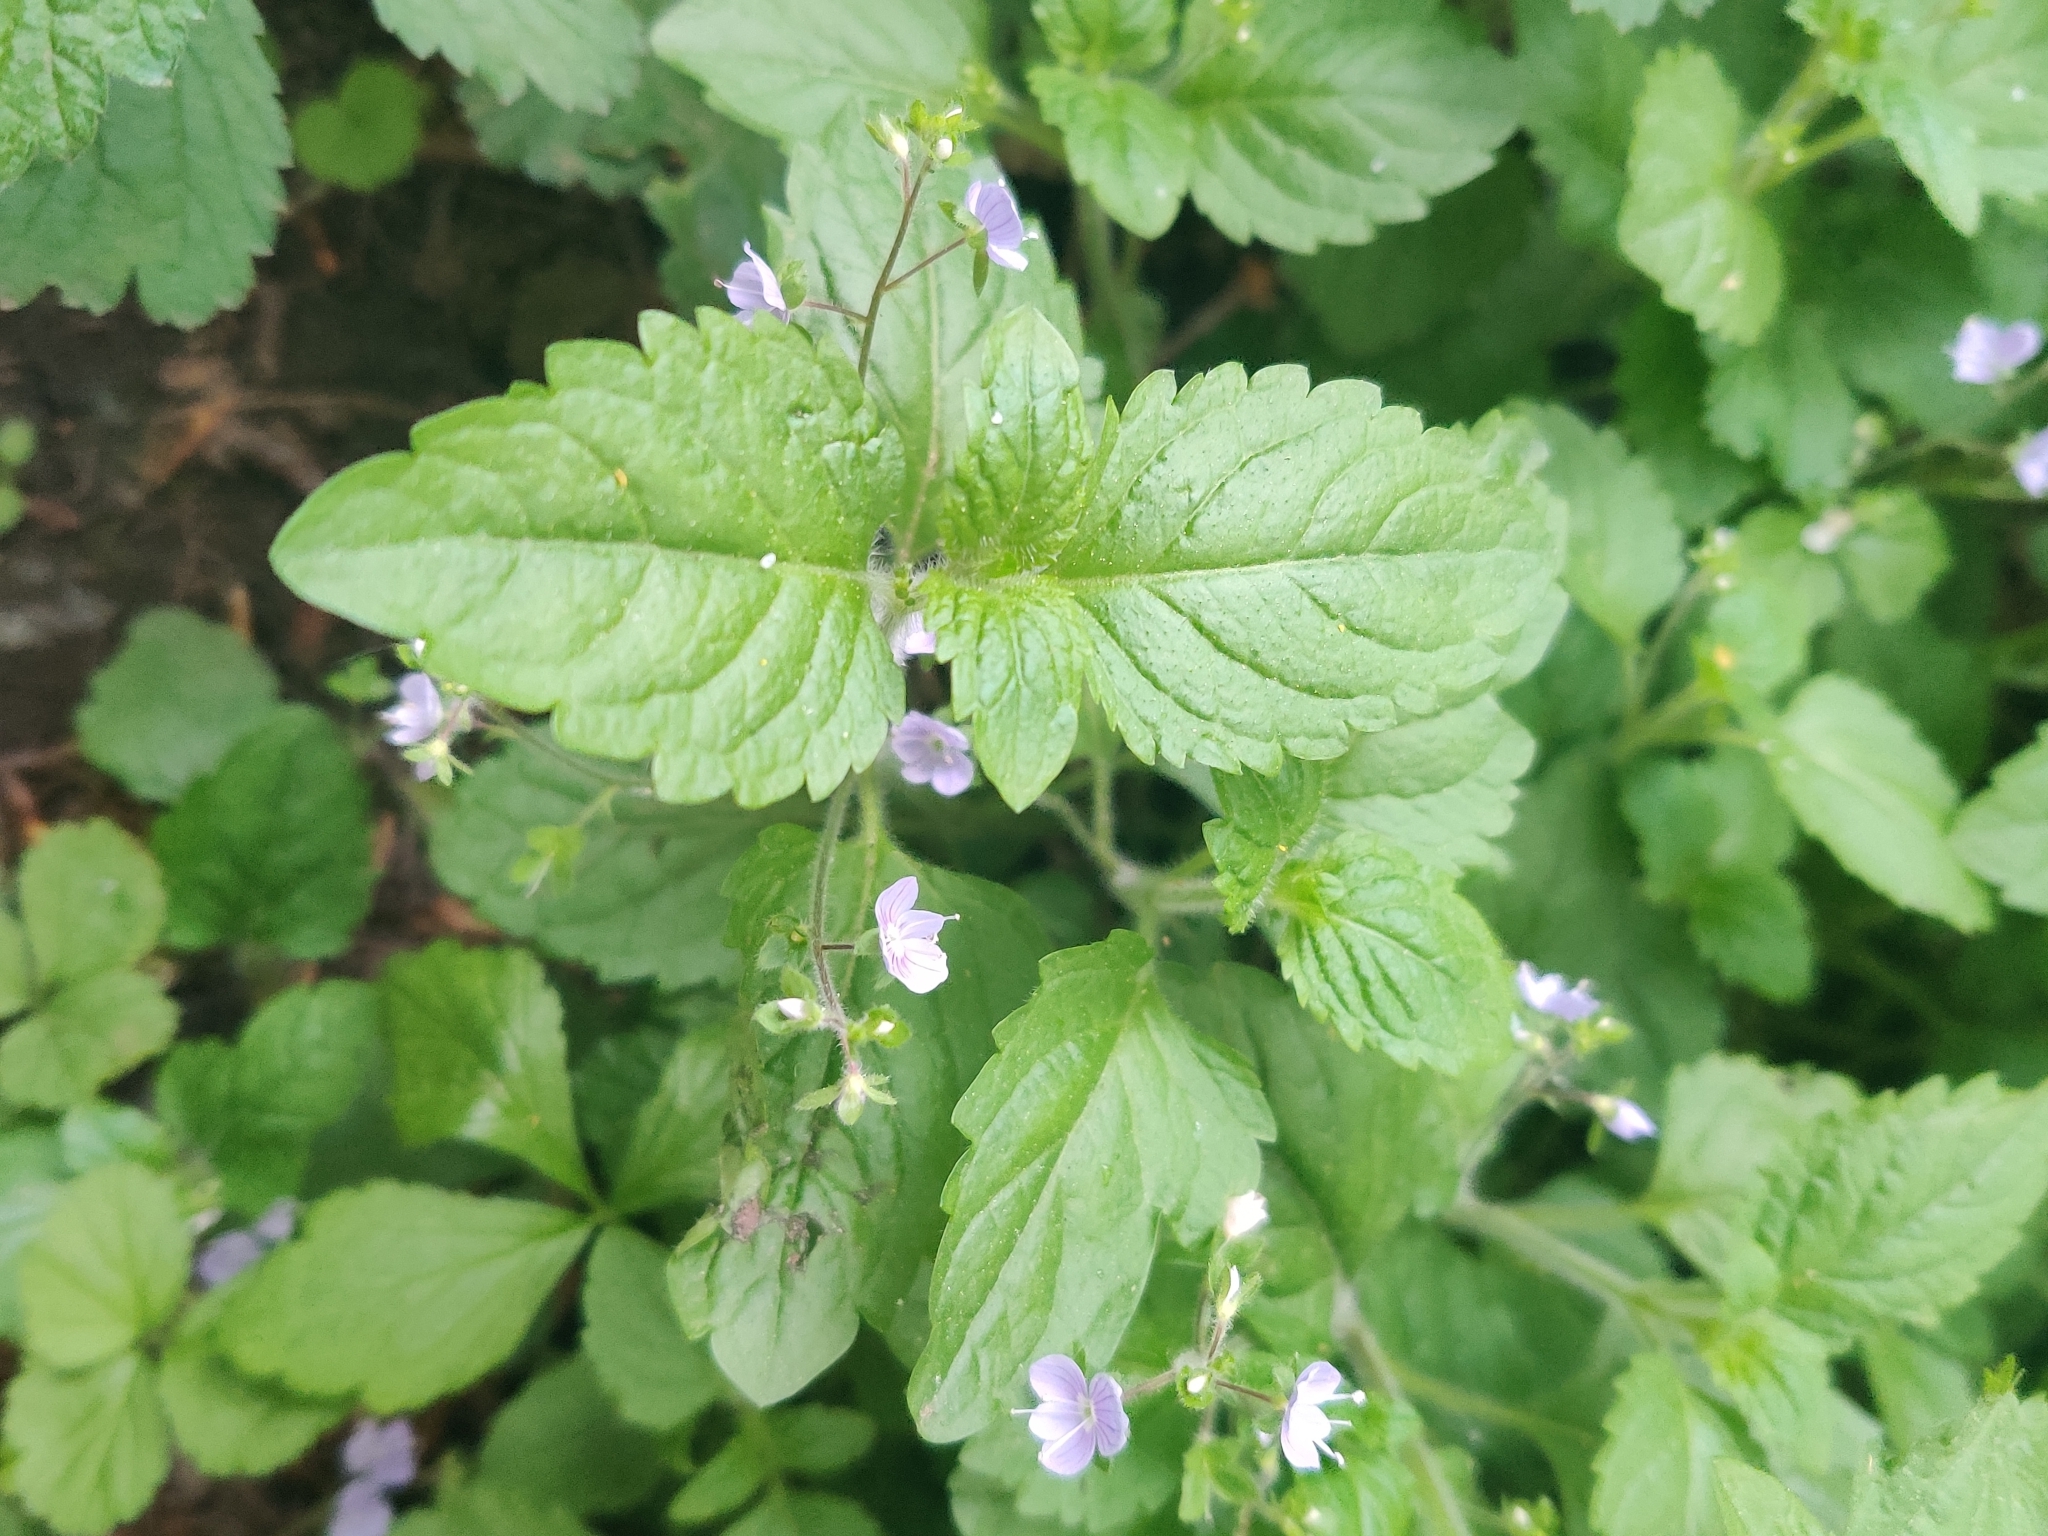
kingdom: Plantae
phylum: Tracheophyta
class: Magnoliopsida
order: Lamiales
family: Plantaginaceae
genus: Veronica
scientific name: Veronica montana
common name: Wood speedwell
